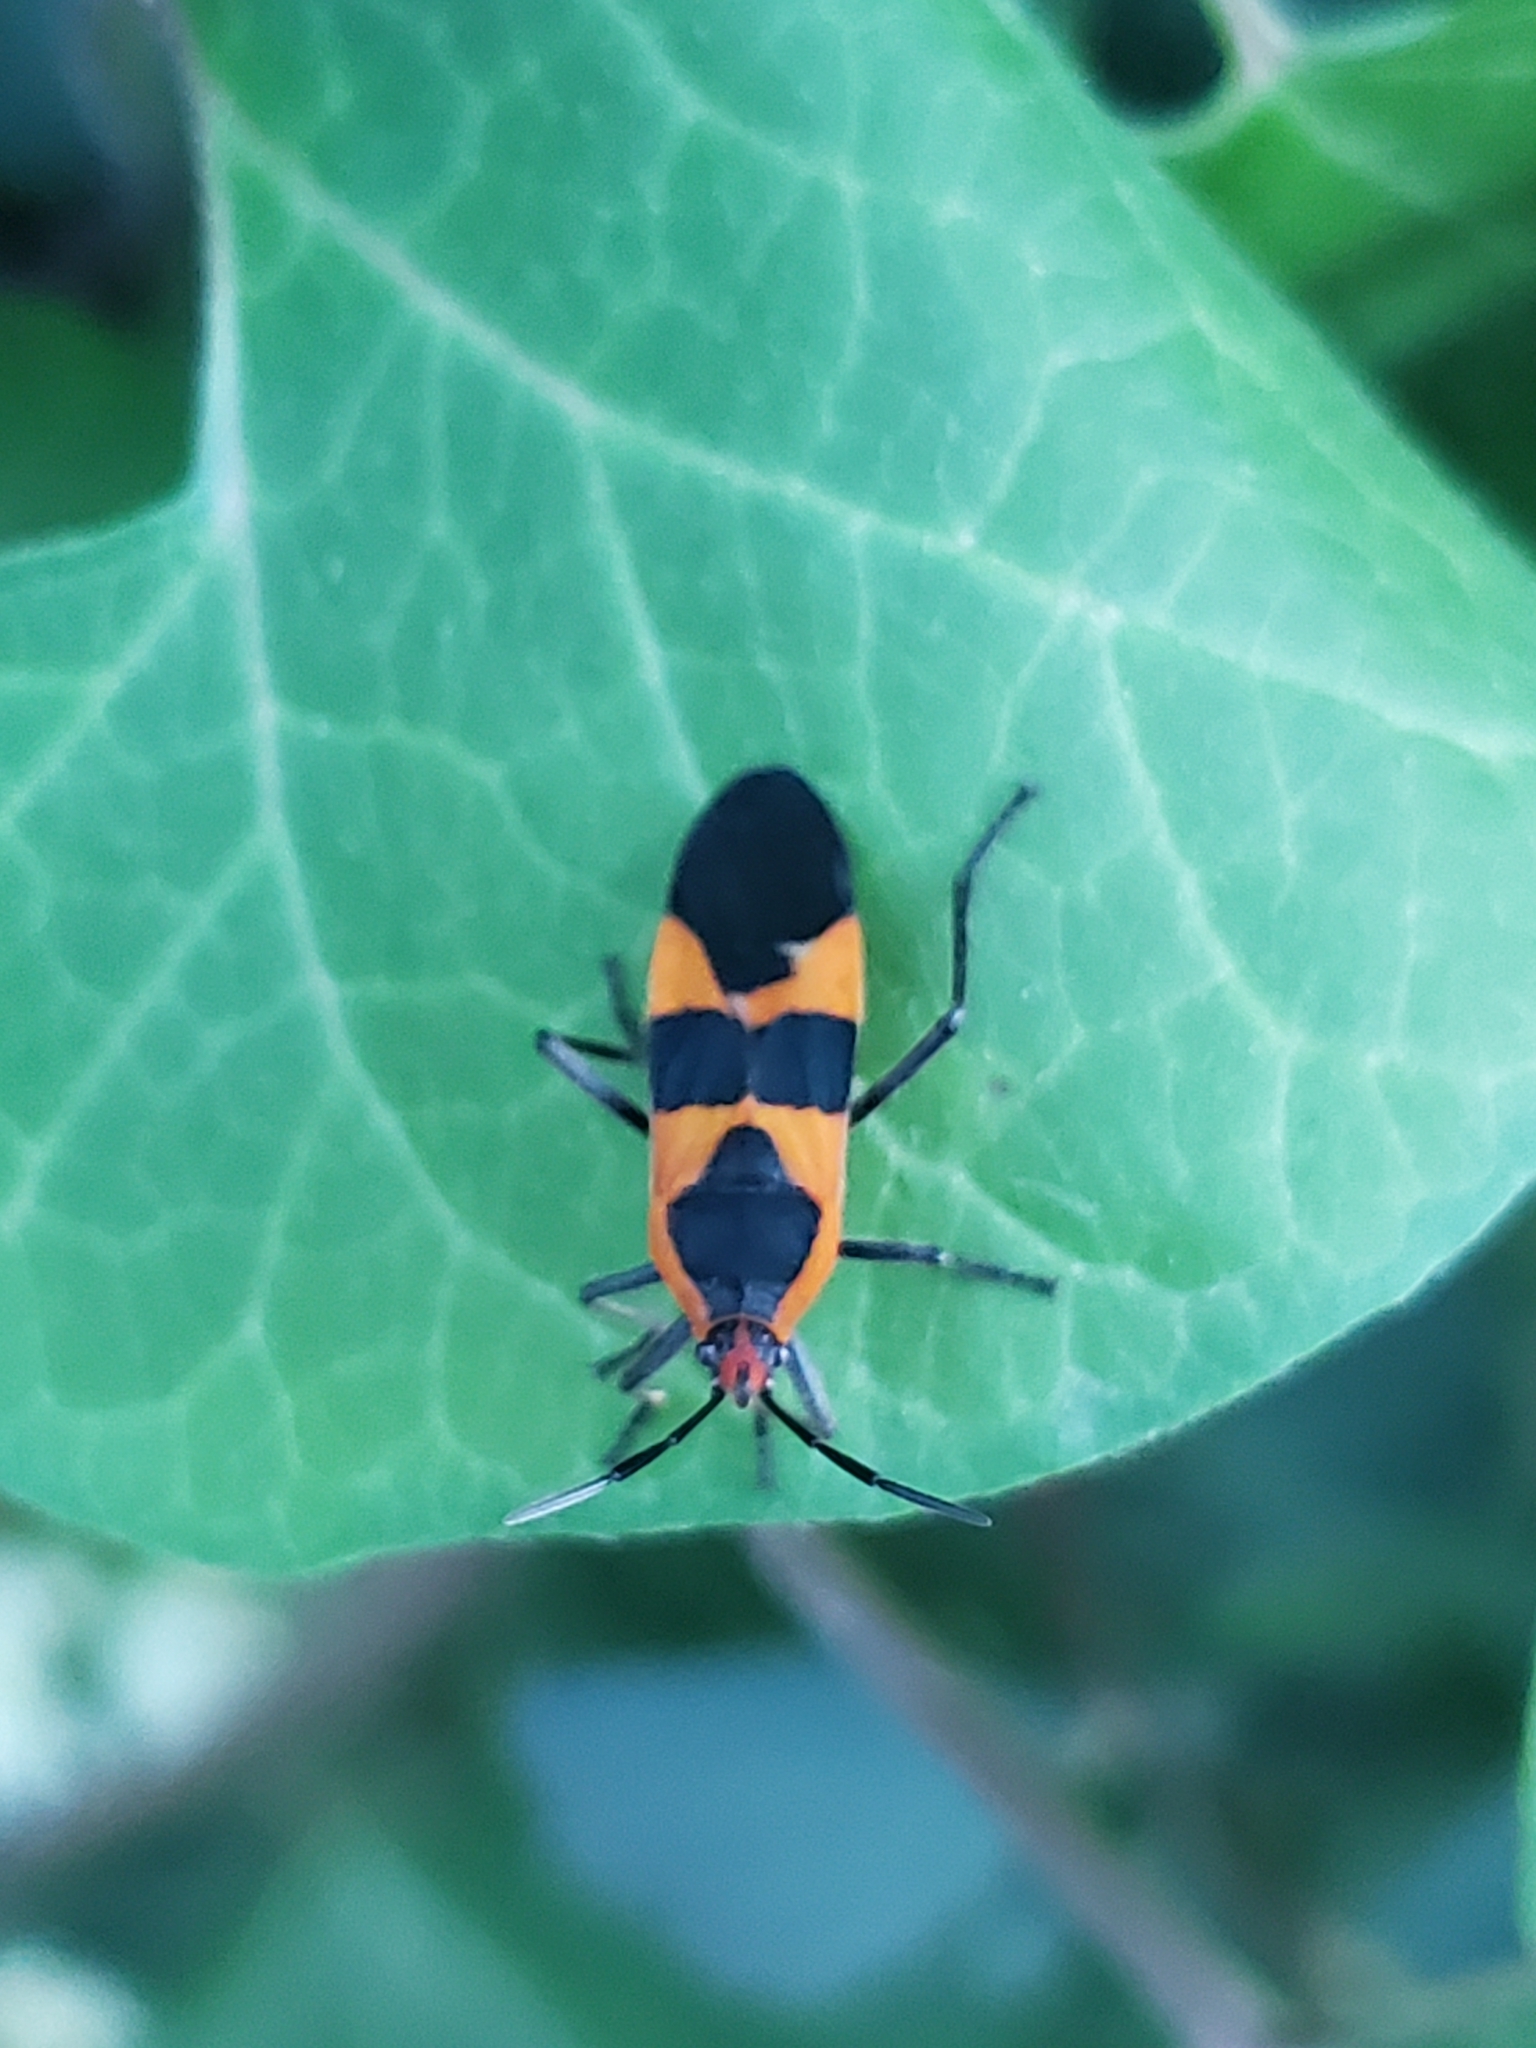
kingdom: Animalia
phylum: Arthropoda
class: Insecta
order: Hemiptera
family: Lygaeidae
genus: Oncopeltus
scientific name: Oncopeltus fasciatus
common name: Large milkweed bug
